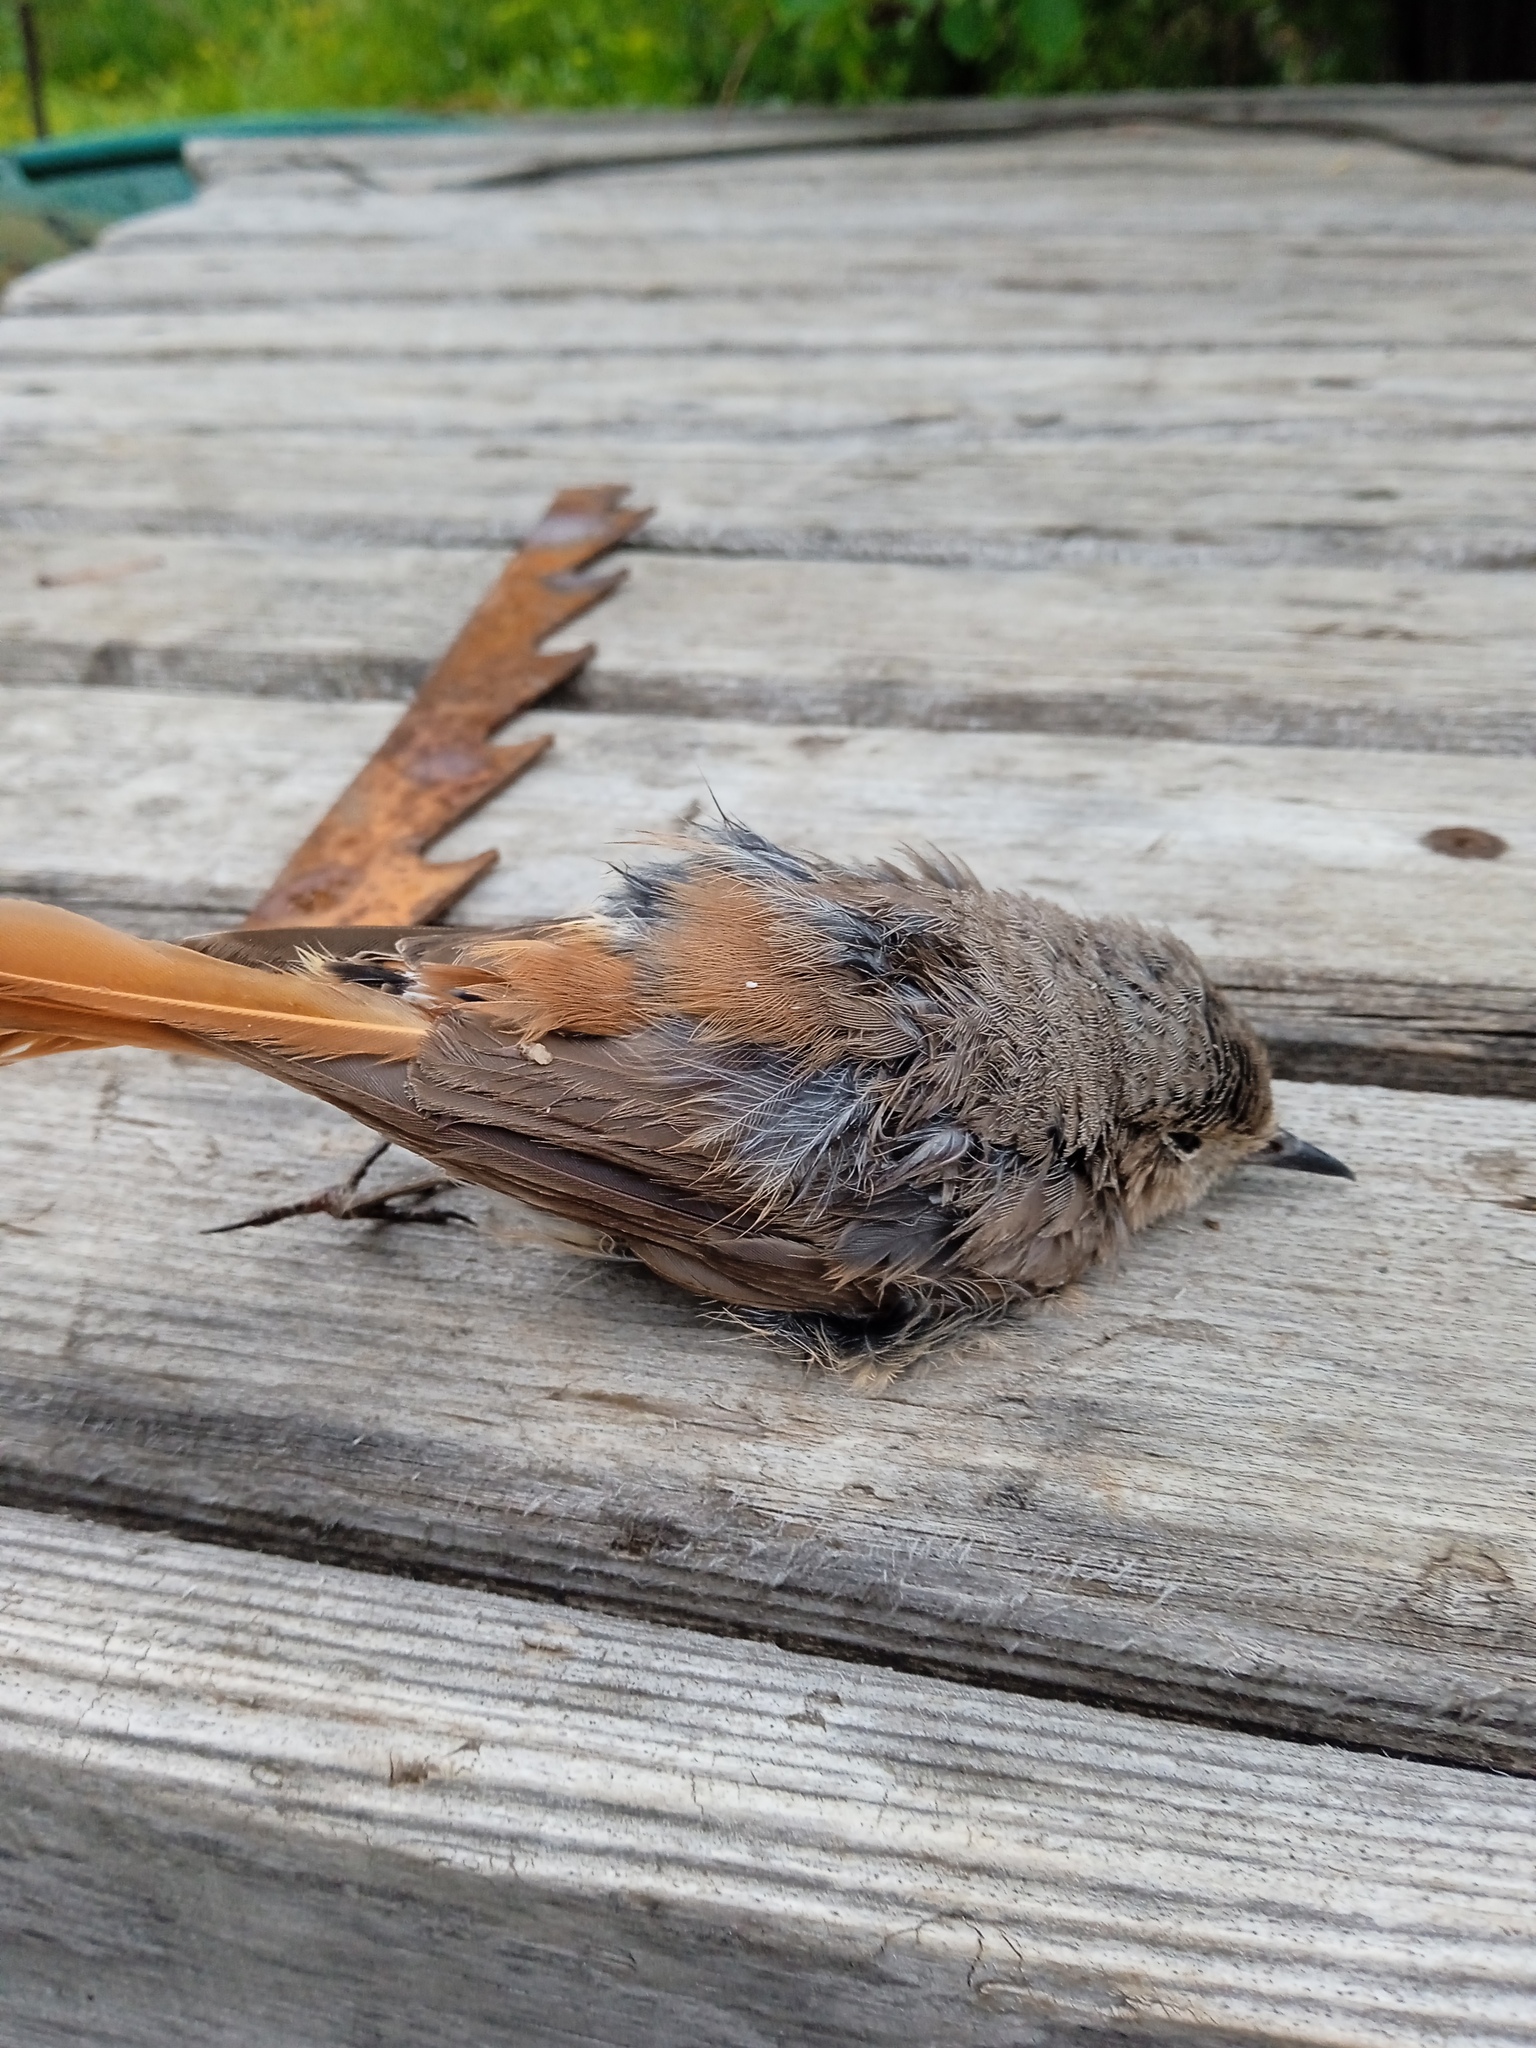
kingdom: Animalia
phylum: Chordata
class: Aves
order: Passeriformes
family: Muscicapidae
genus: Phoenicurus
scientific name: Phoenicurus phoenicurus
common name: Common redstart
